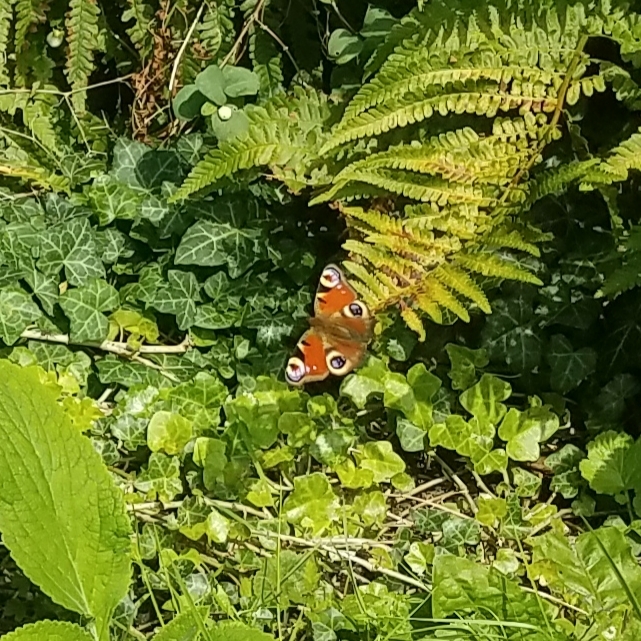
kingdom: Animalia
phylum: Arthropoda
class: Insecta
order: Lepidoptera
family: Nymphalidae
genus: Aglais
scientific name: Aglais io
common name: Peacock
